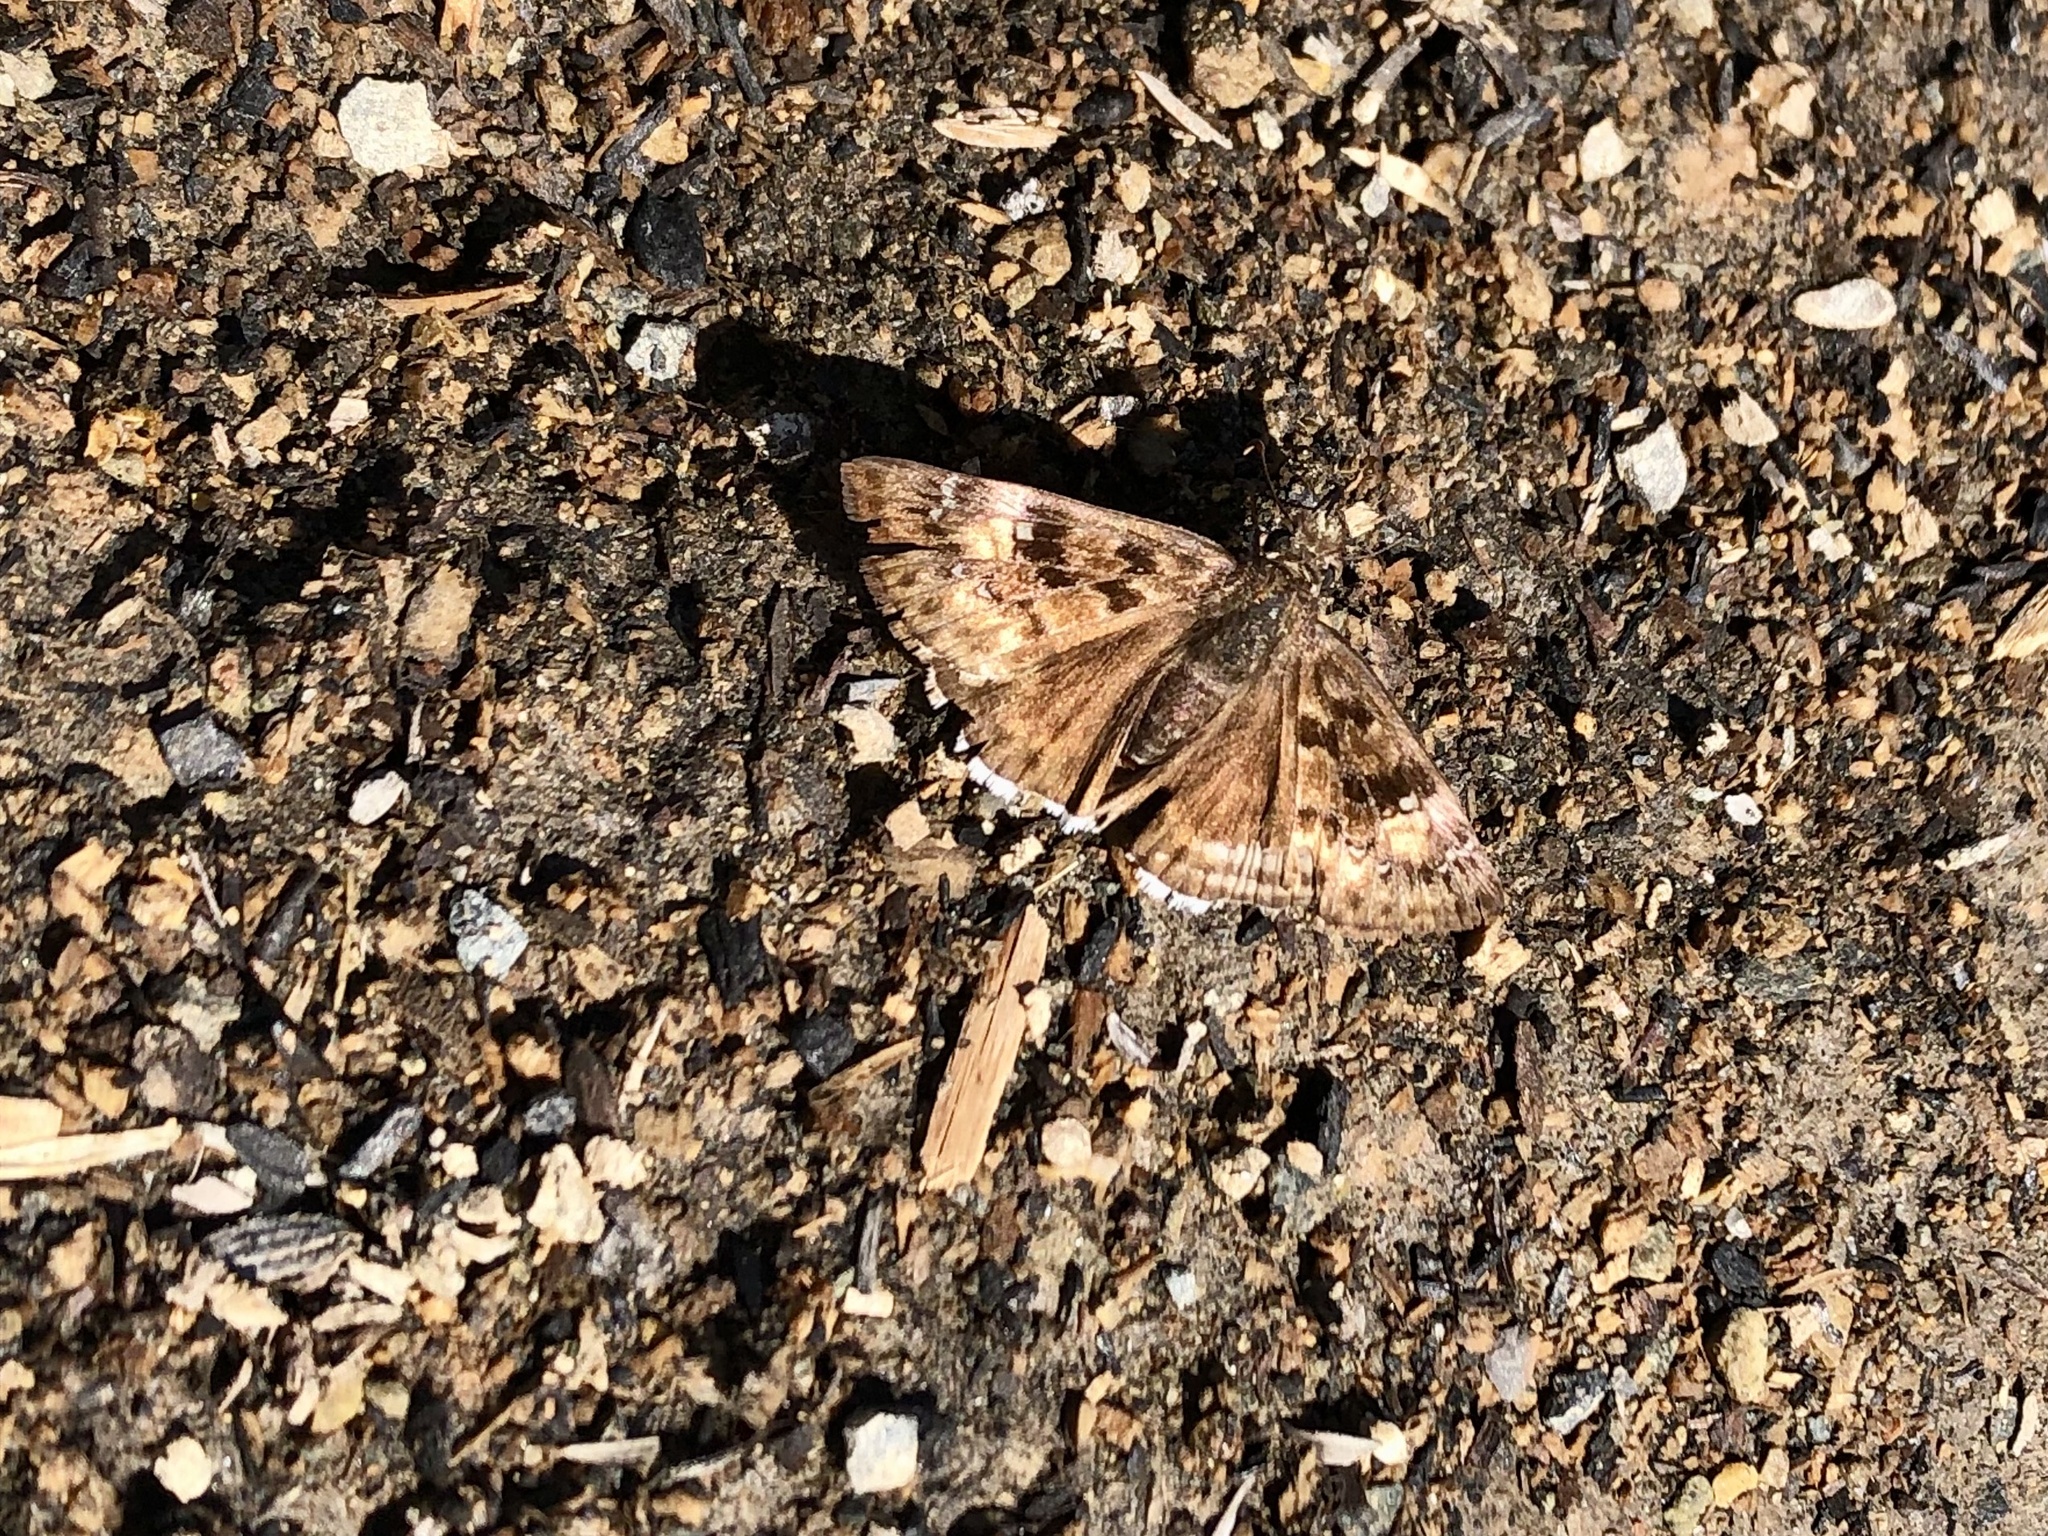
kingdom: Animalia
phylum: Arthropoda
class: Insecta
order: Lepidoptera
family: Hesperiidae
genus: Erynnis
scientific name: Erynnis tristis
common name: Mournful duskywing
